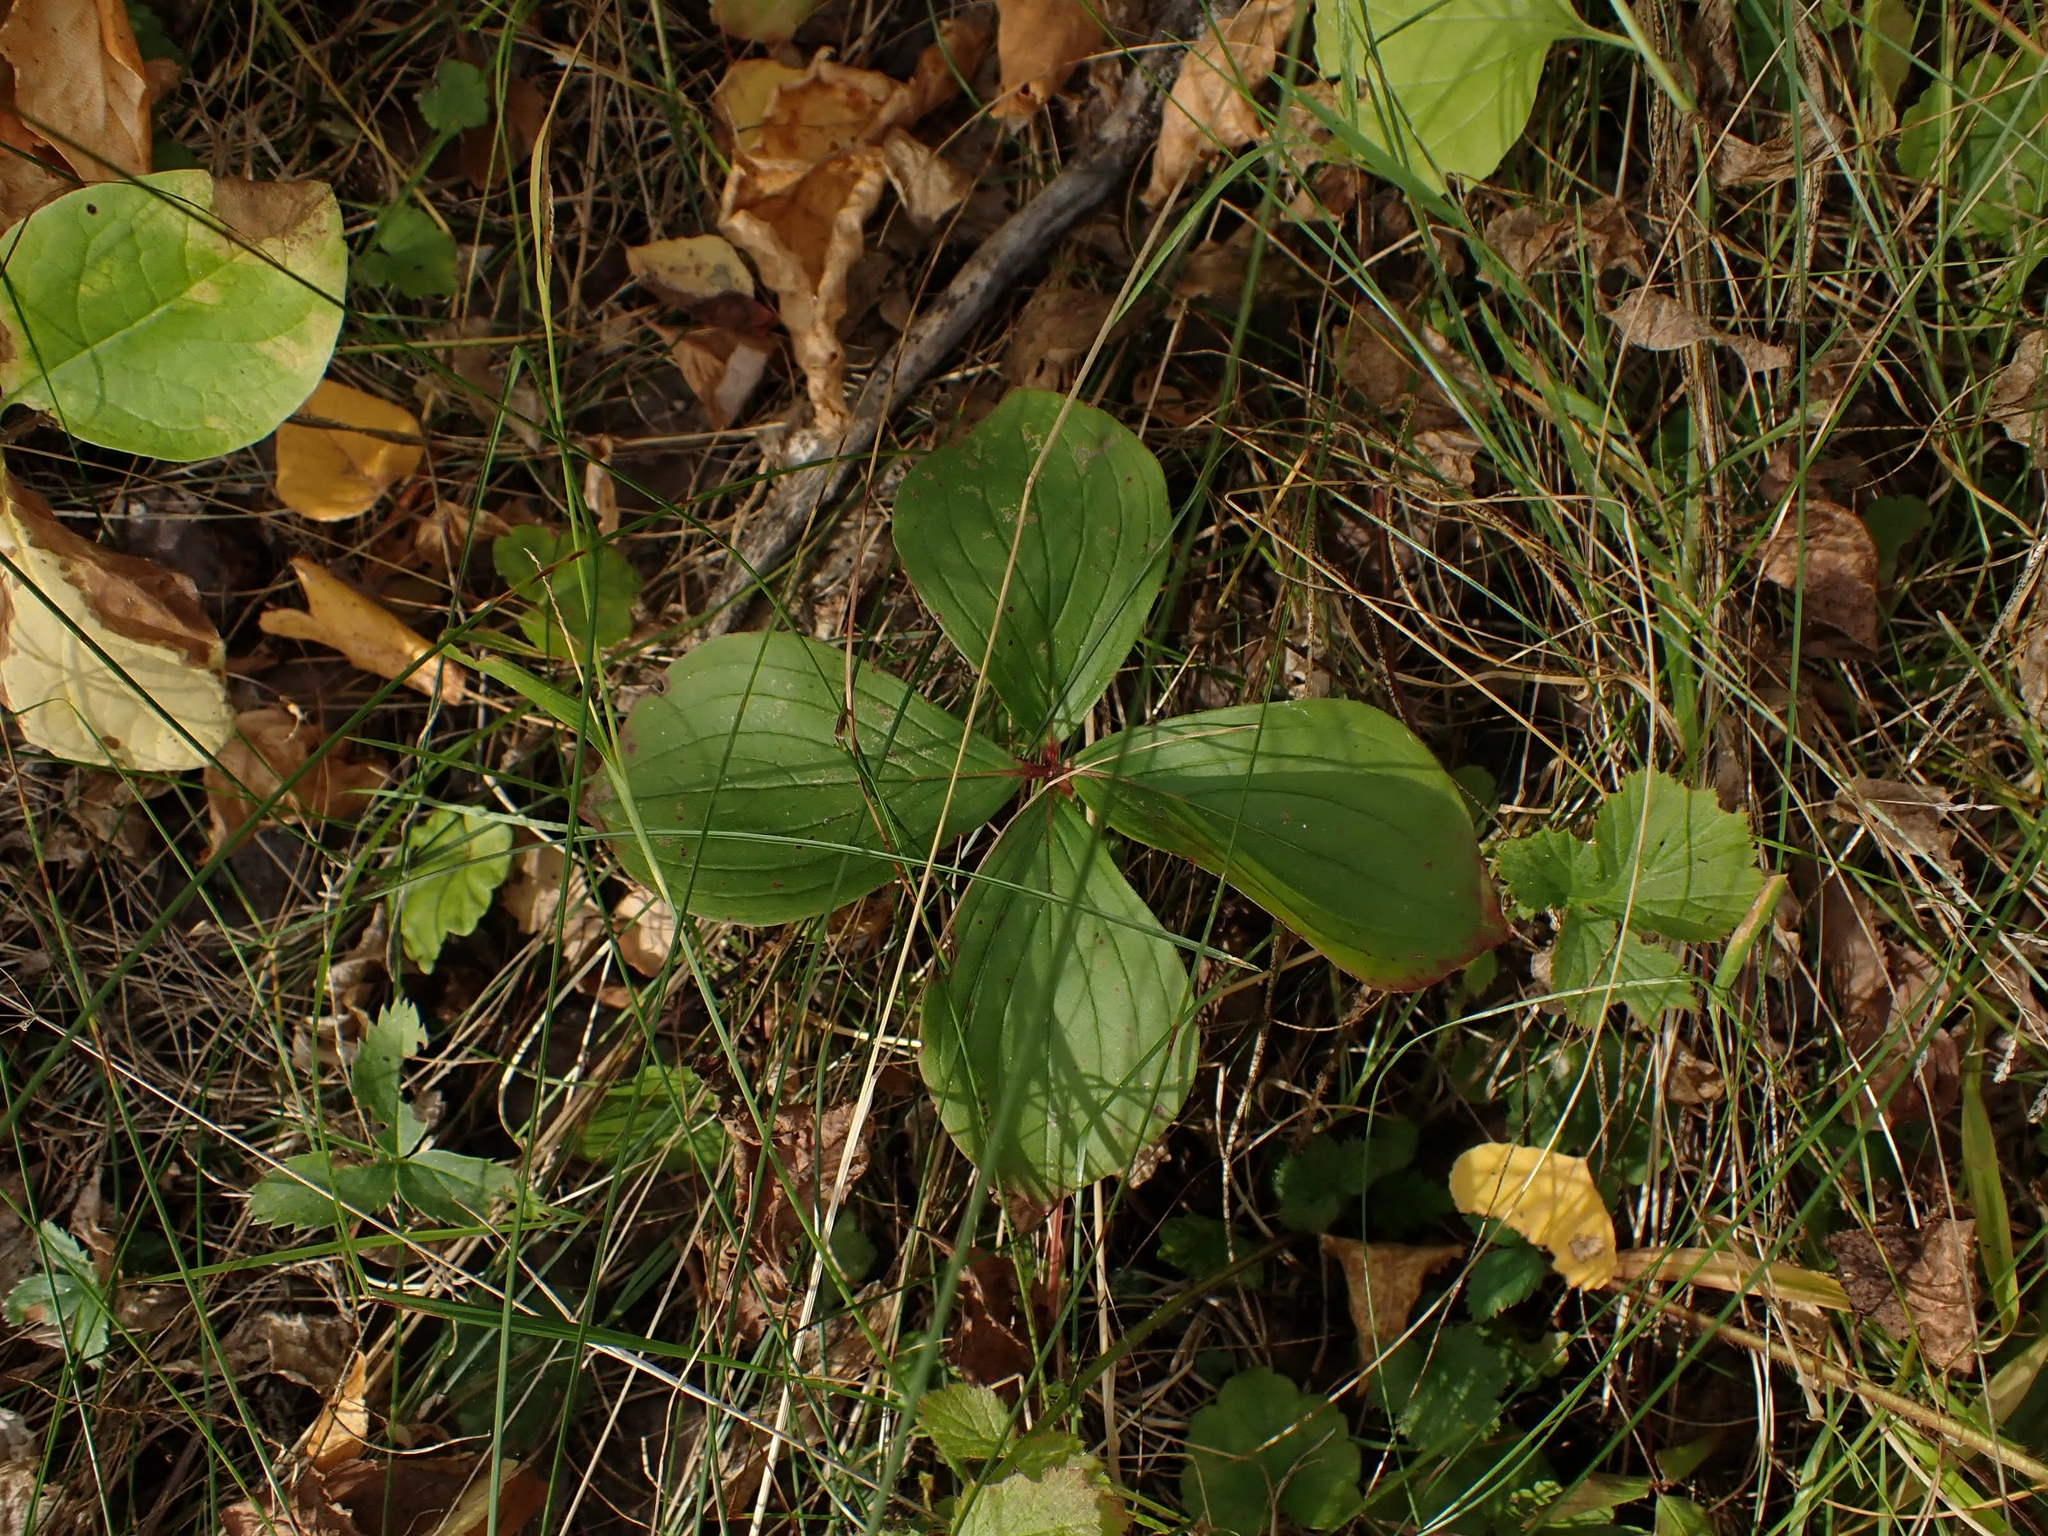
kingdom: Plantae
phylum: Tracheophyta
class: Magnoliopsida
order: Cornales
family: Cornaceae
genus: Cornus
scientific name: Cornus canadensis
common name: Creeping dogwood
